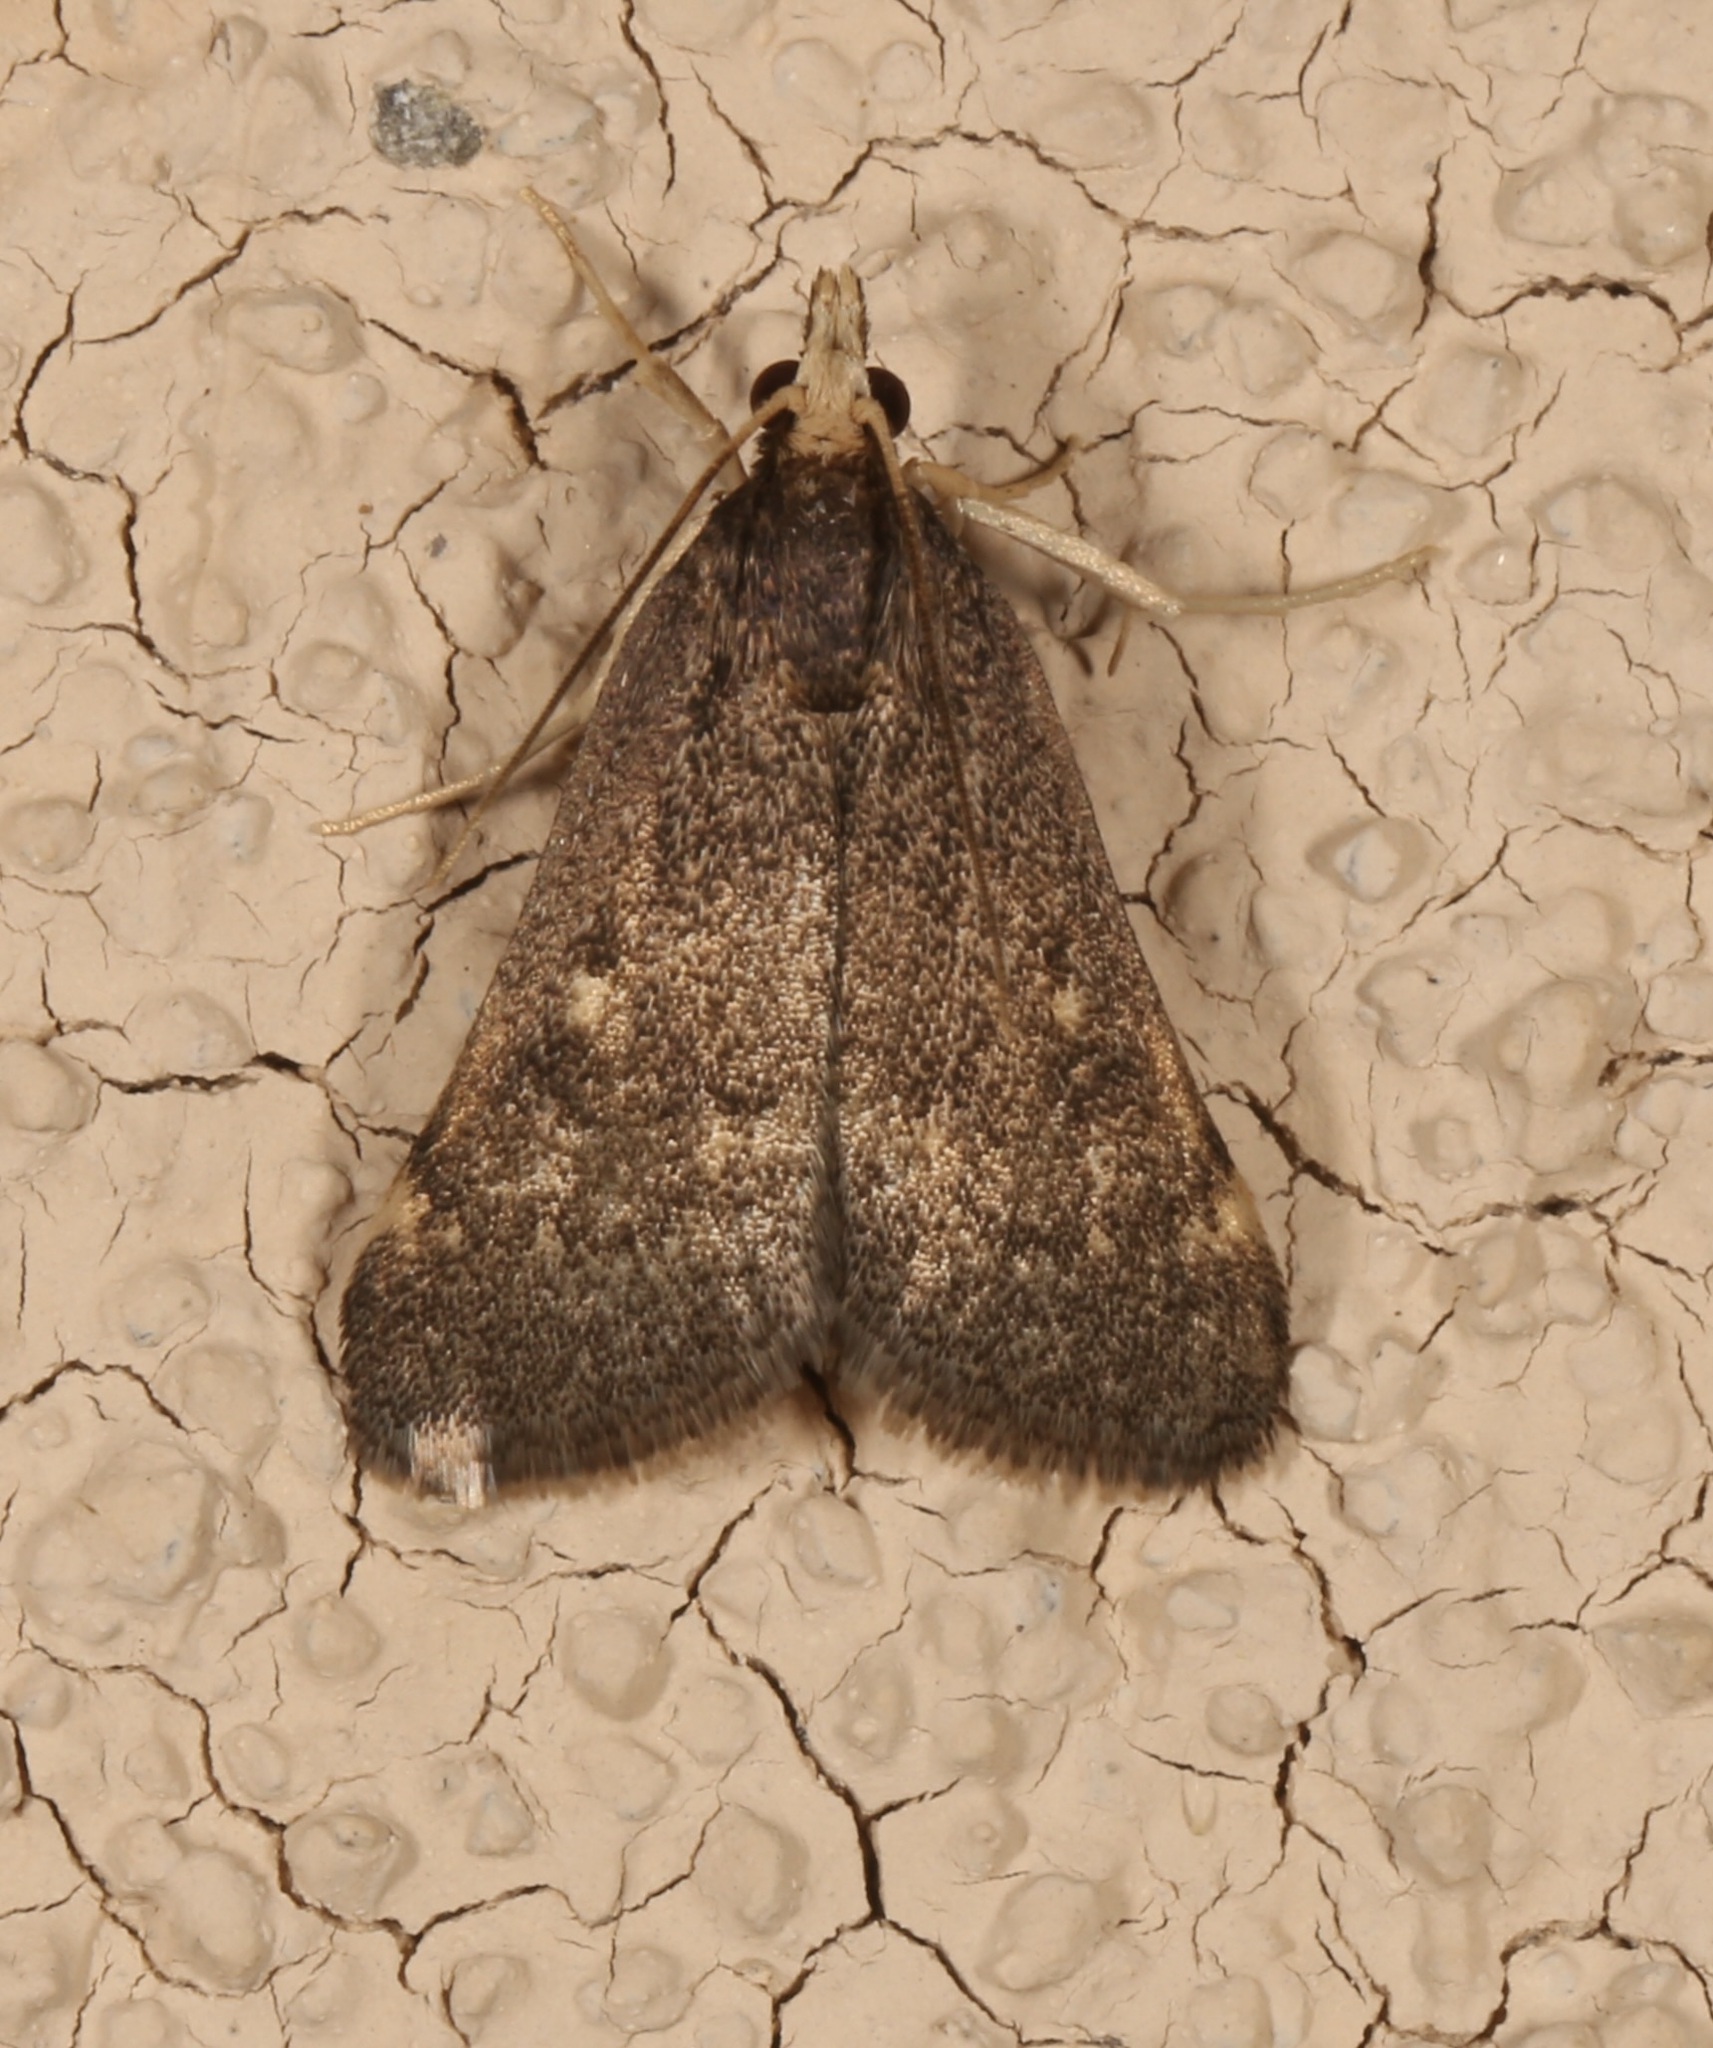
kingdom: Animalia
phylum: Arthropoda
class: Insecta
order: Lepidoptera
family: Crambidae
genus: Loxostegopsis
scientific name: Loxostegopsis curialis
